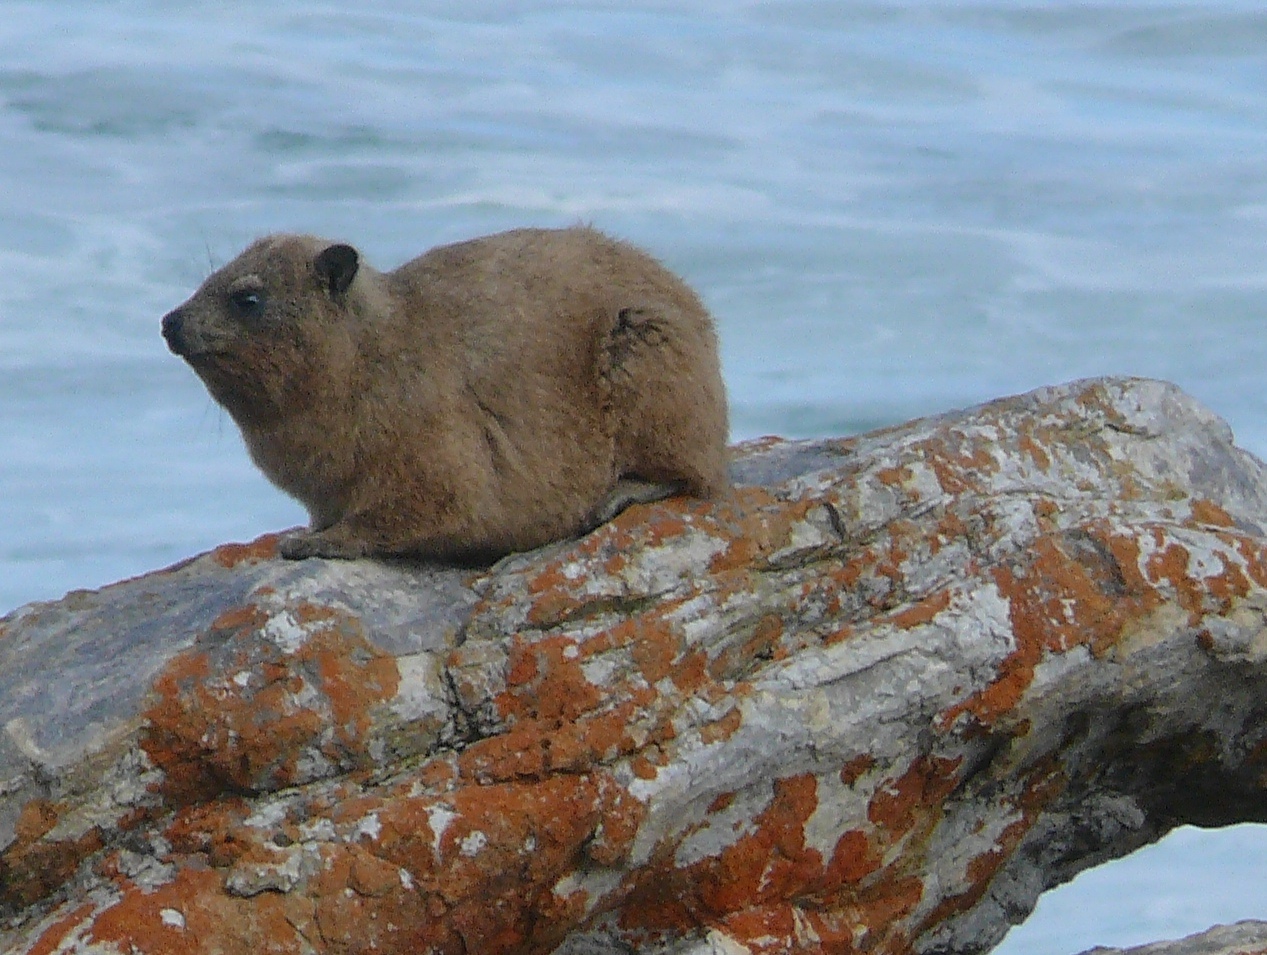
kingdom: Animalia
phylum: Chordata
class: Mammalia
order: Hyracoidea
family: Procaviidae
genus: Procavia
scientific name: Procavia capensis
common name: Rock hyrax
